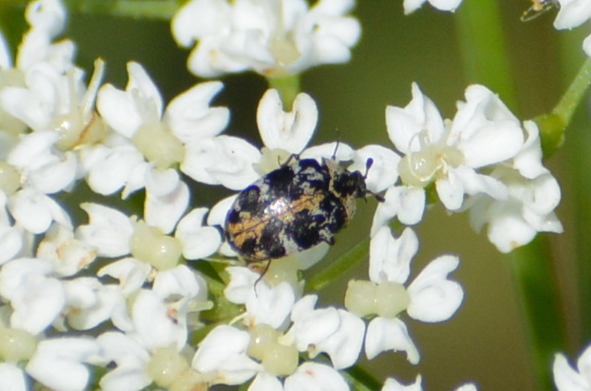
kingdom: Animalia
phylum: Arthropoda
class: Insecta
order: Coleoptera
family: Dermestidae
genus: Anthrenus
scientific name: Anthrenus scrophulariae
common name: Buffalo carpet beetle
